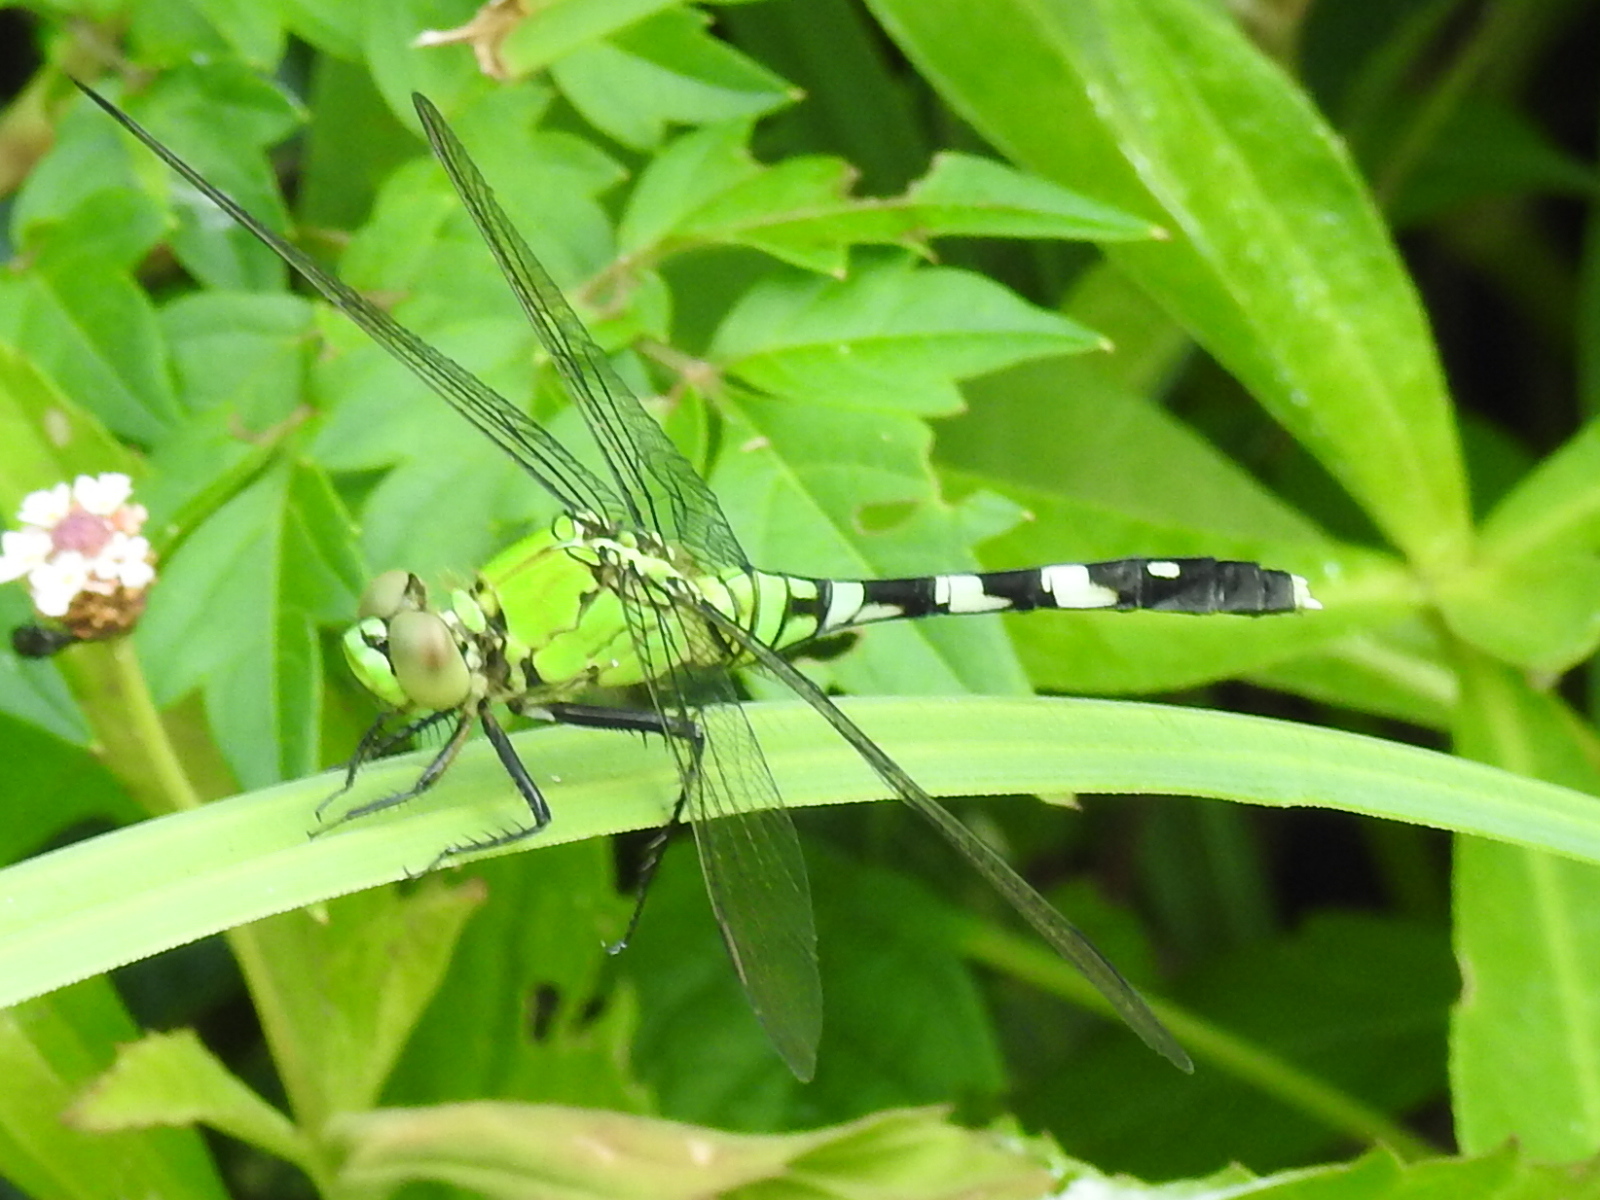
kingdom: Animalia
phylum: Arthropoda
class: Insecta
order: Odonata
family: Libellulidae
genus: Erythemis
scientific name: Erythemis simplicicollis
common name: Eastern pondhawk
